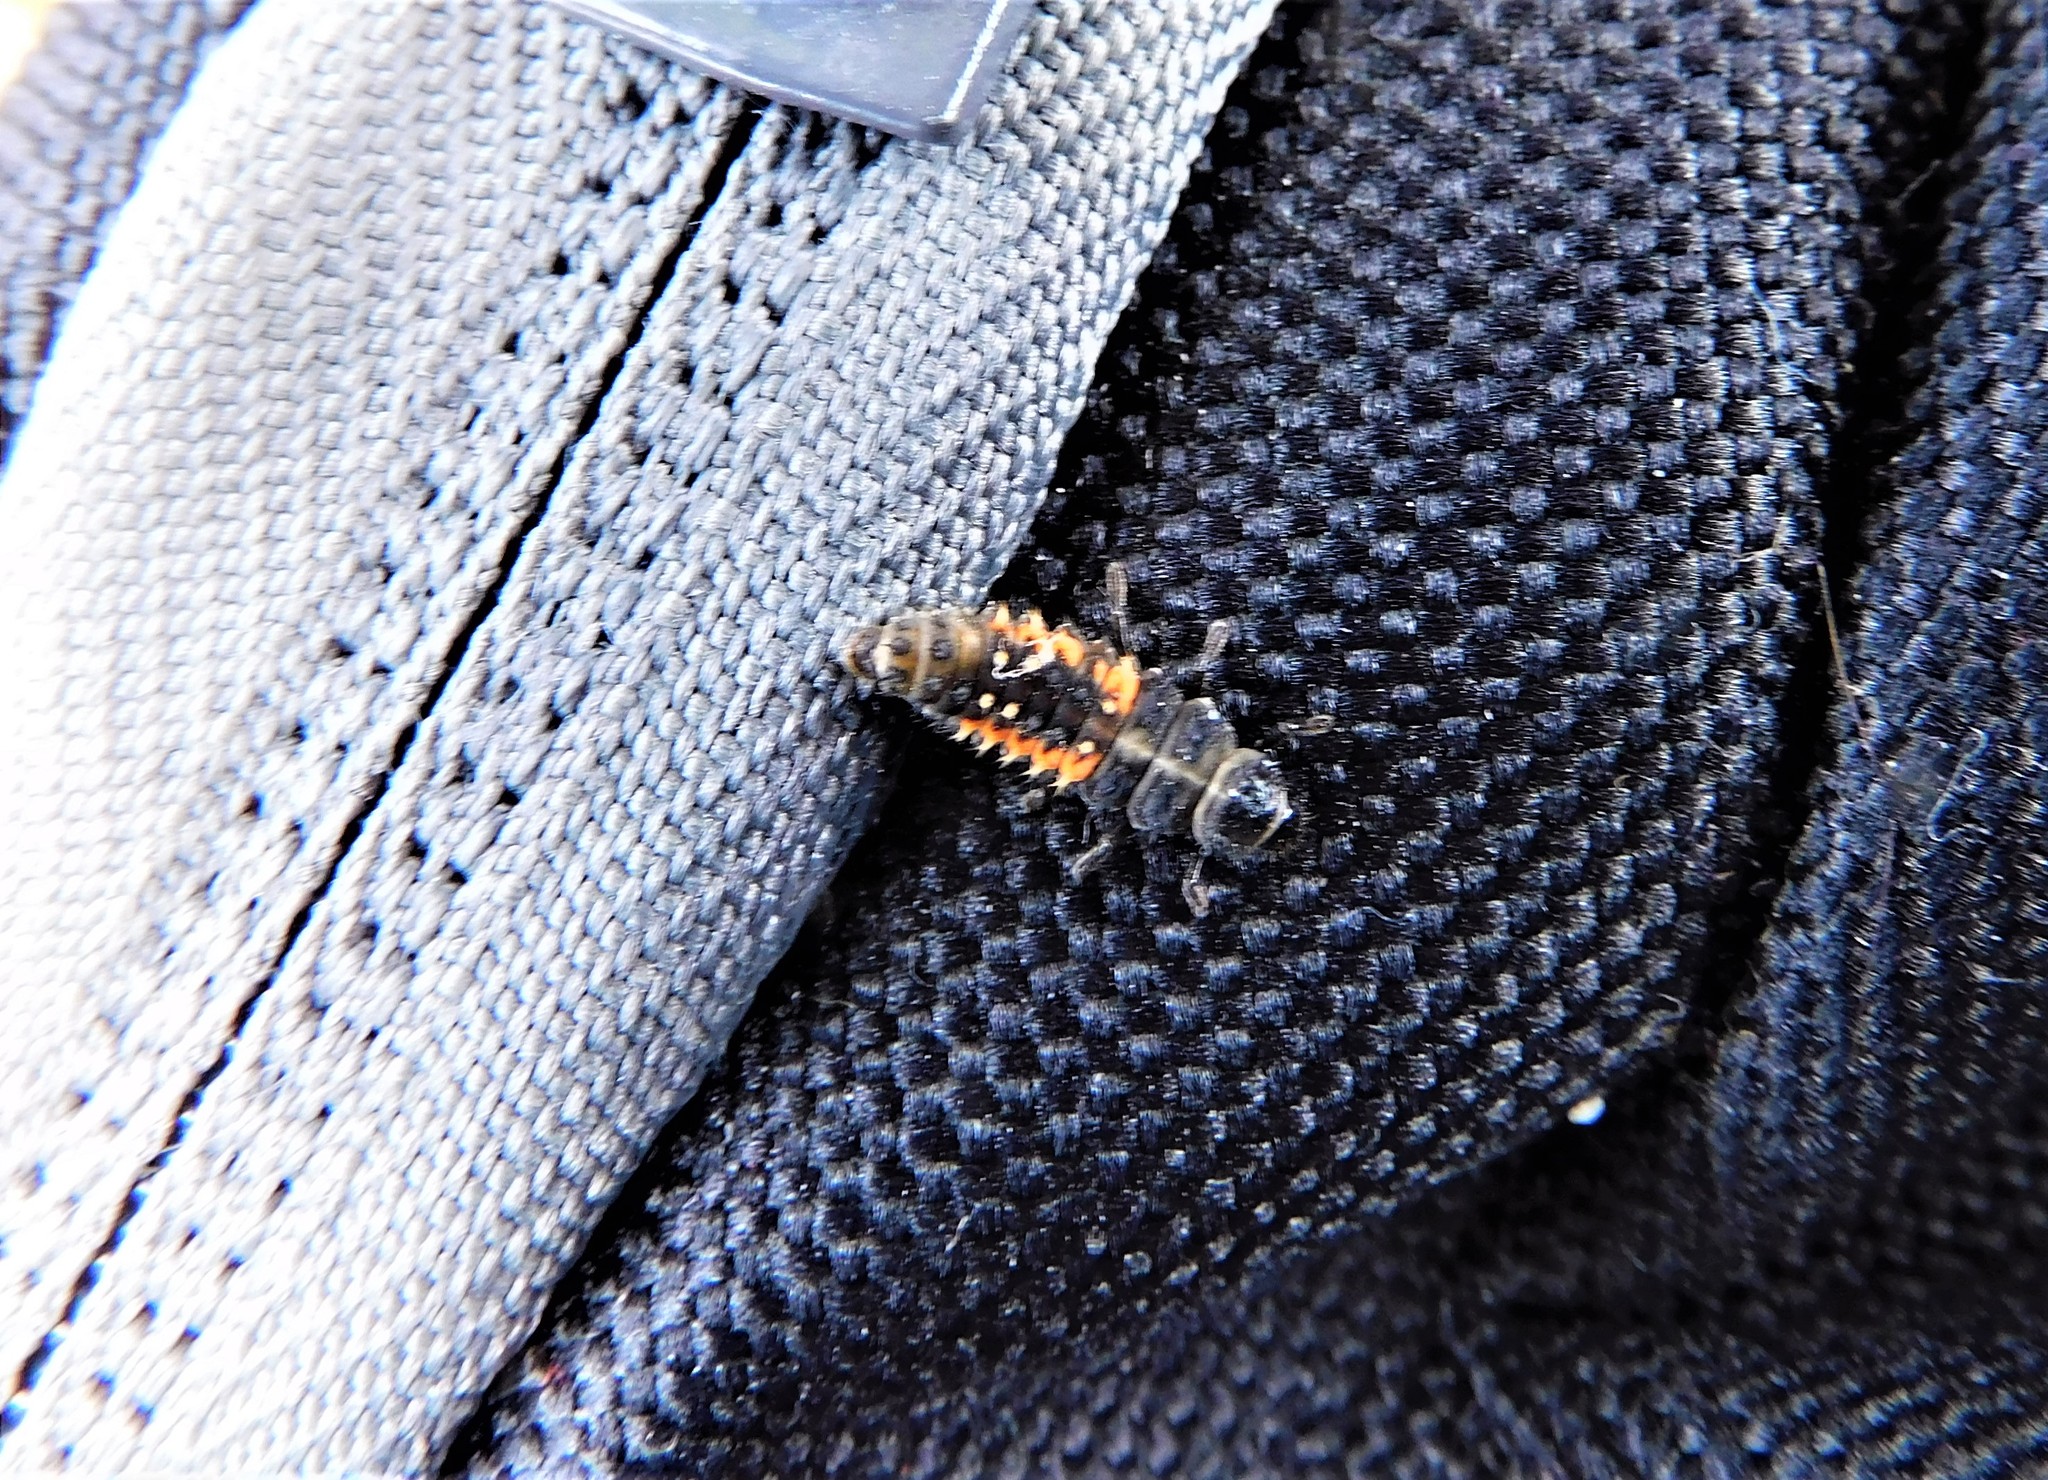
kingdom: Animalia
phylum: Arthropoda
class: Insecta
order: Coleoptera
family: Coccinellidae
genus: Harmonia
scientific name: Harmonia axyridis
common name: Harlequin ladybird
